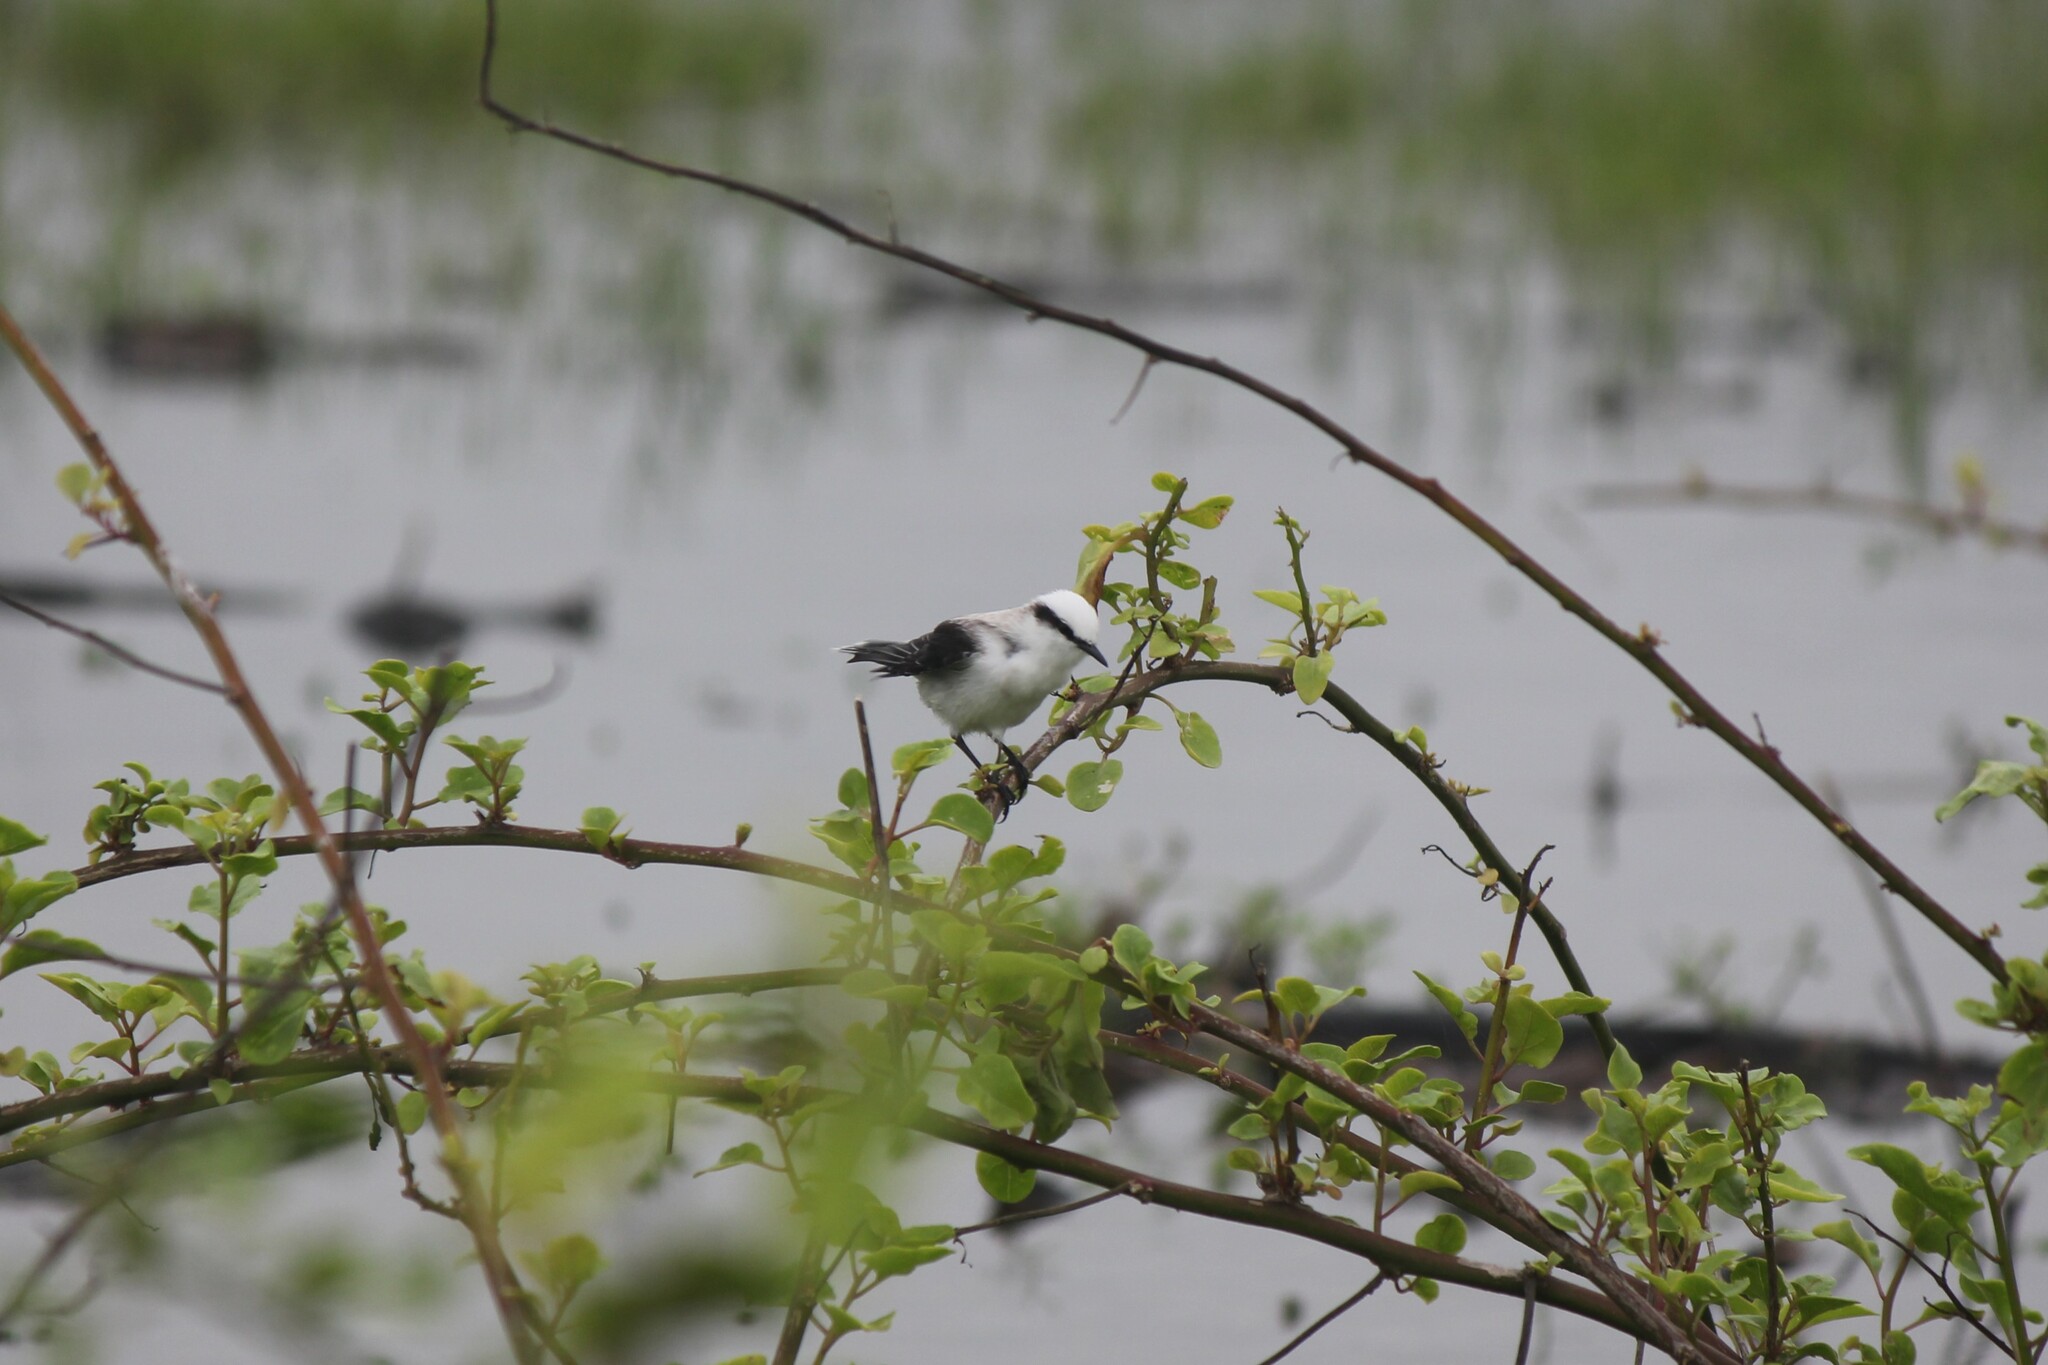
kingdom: Animalia
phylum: Chordata
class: Aves
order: Passeriformes
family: Tyrannidae
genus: Fluvicola
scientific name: Fluvicola nengeta
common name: Masked water tyrant
